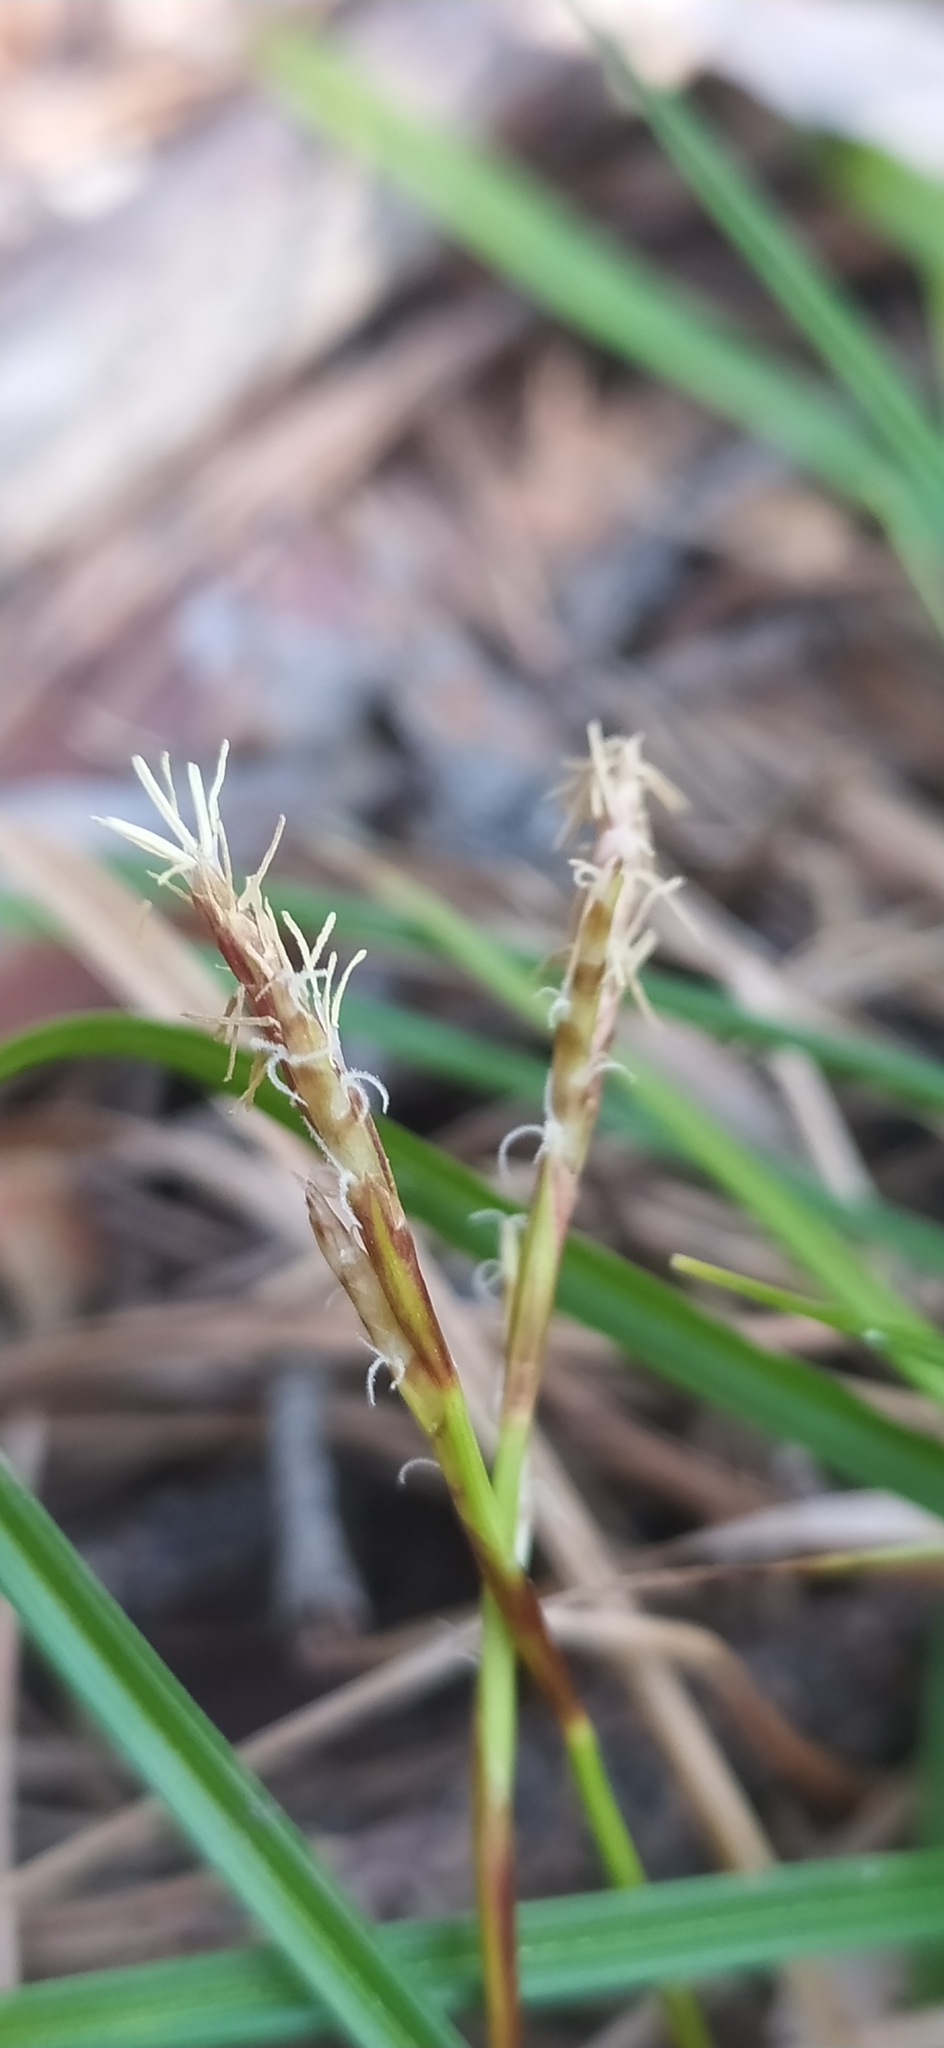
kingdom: Plantae
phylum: Tracheophyta
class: Liliopsida
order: Poales
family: Cyperaceae
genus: Carex
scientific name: Carex digitata
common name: Fingered sedge
